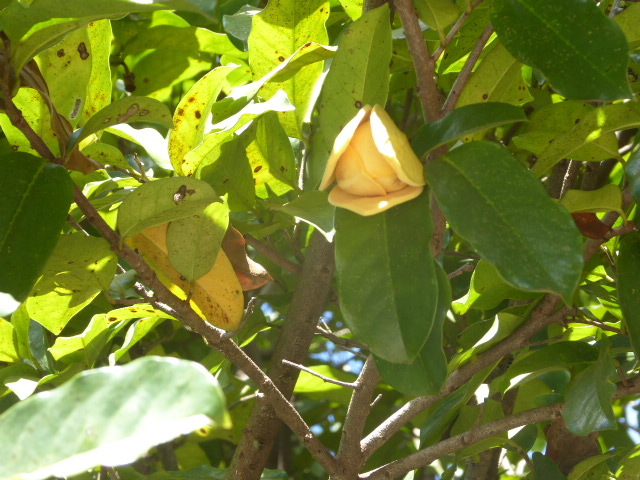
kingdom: Plantae
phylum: Tracheophyta
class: Magnoliopsida
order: Magnoliales
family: Annonaceae
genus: Annona
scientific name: Annona montana
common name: Mountain soursop
